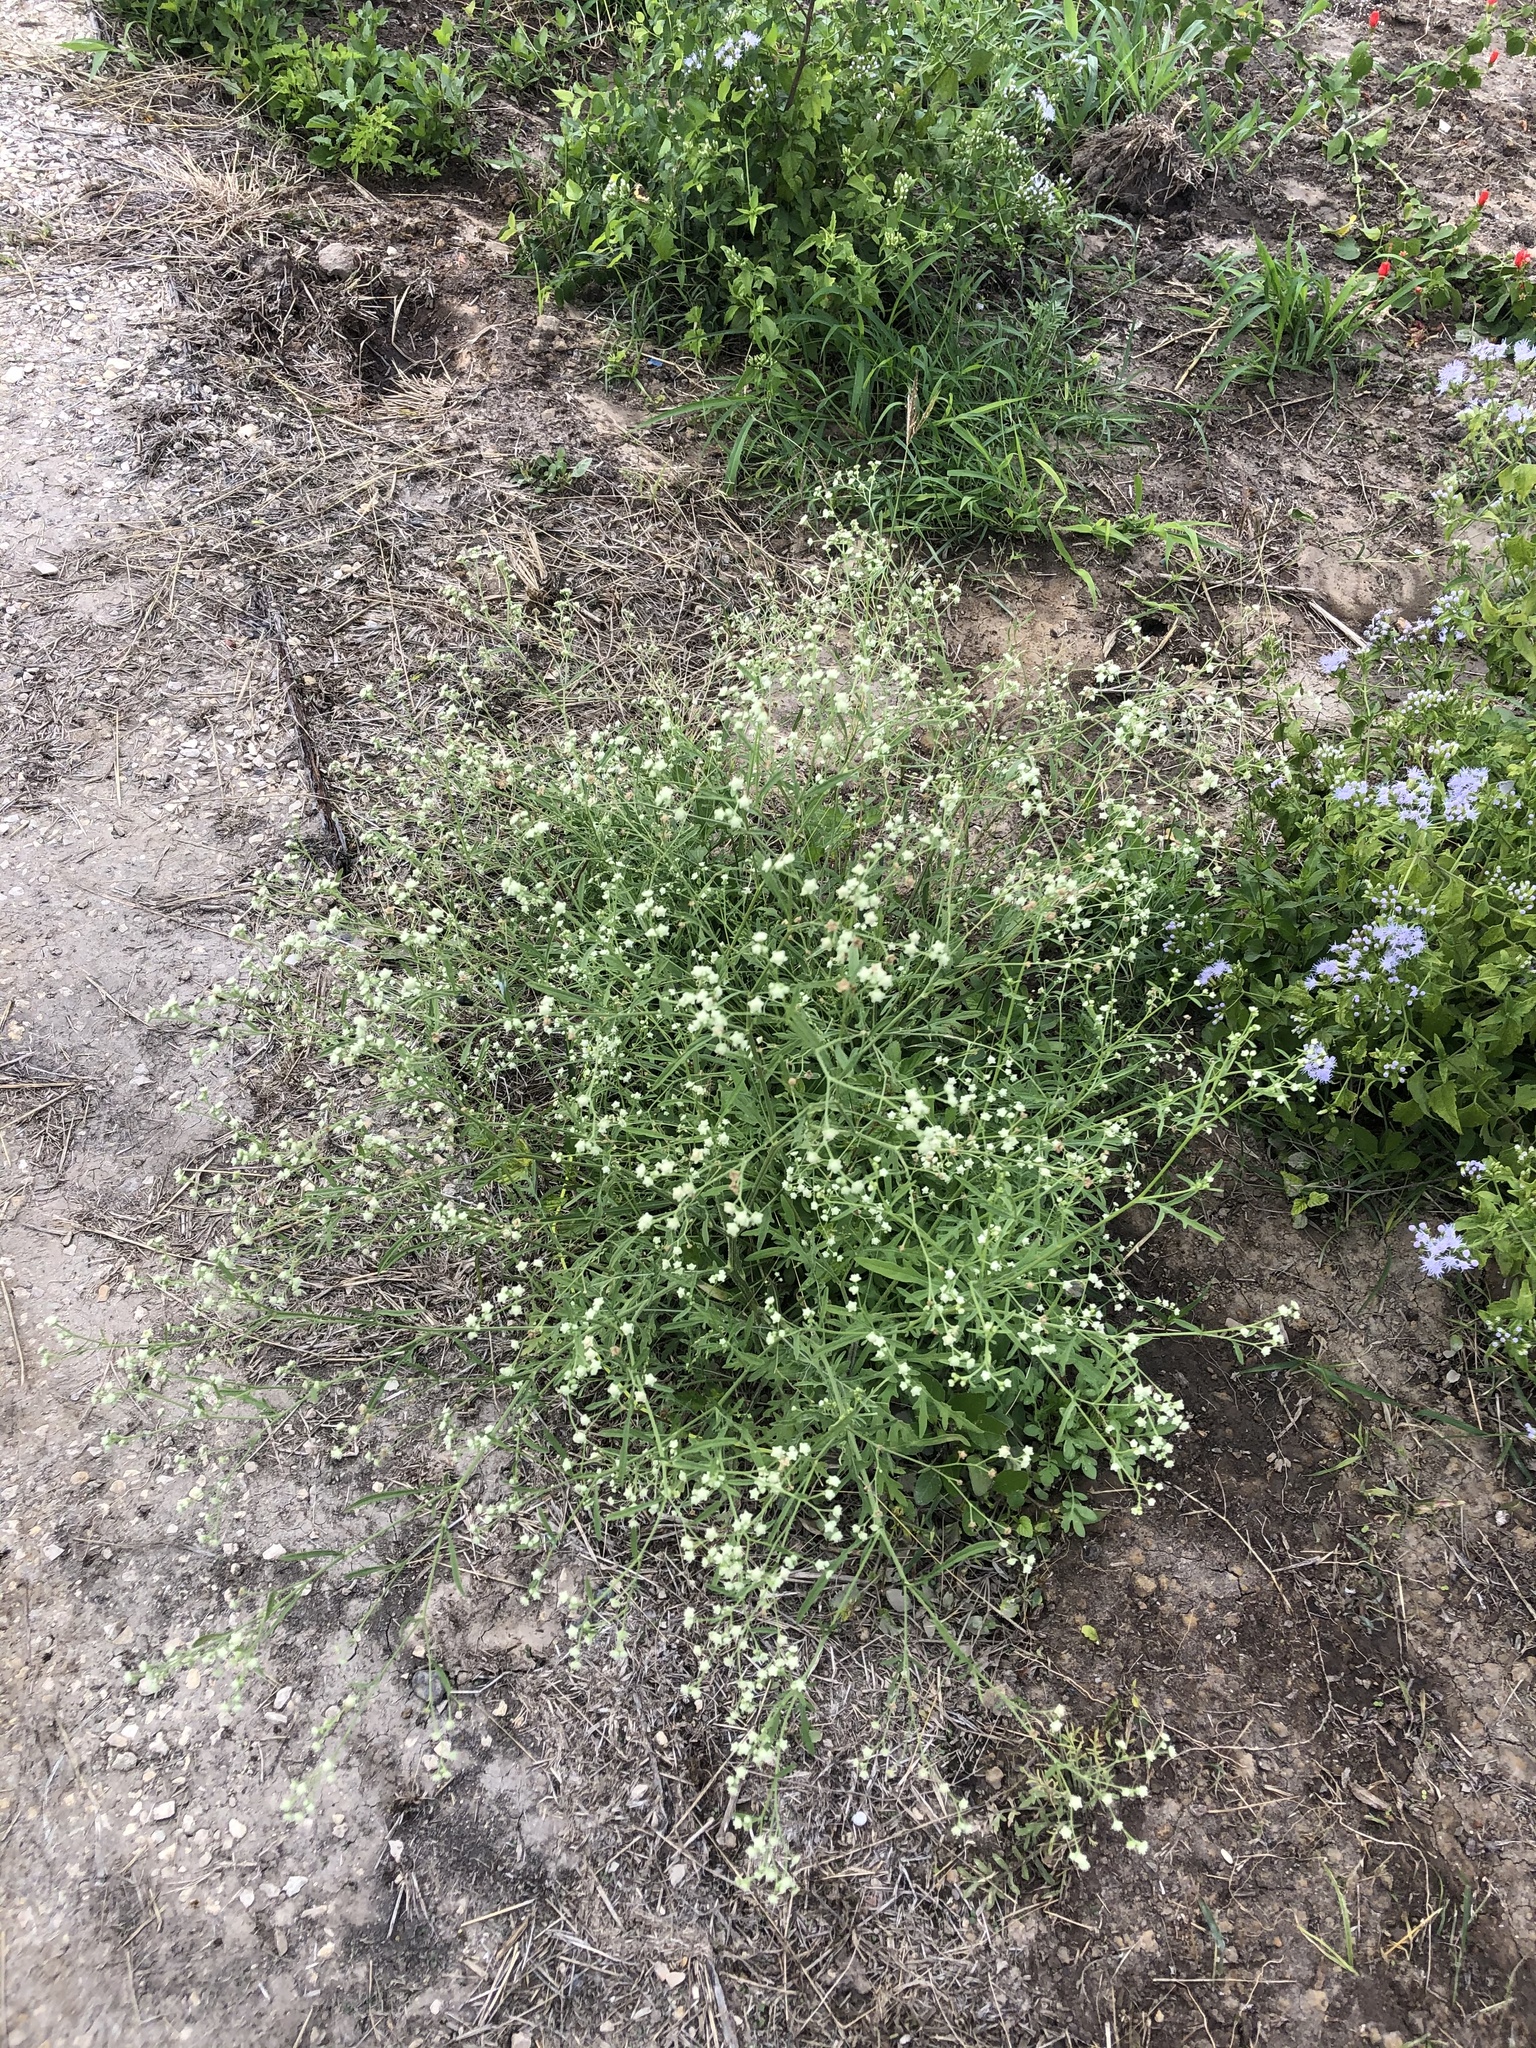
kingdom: Plantae
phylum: Tracheophyta
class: Magnoliopsida
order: Asterales
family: Asteraceae
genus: Parthenium
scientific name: Parthenium hysterophorus
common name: Santa maria feverfew
